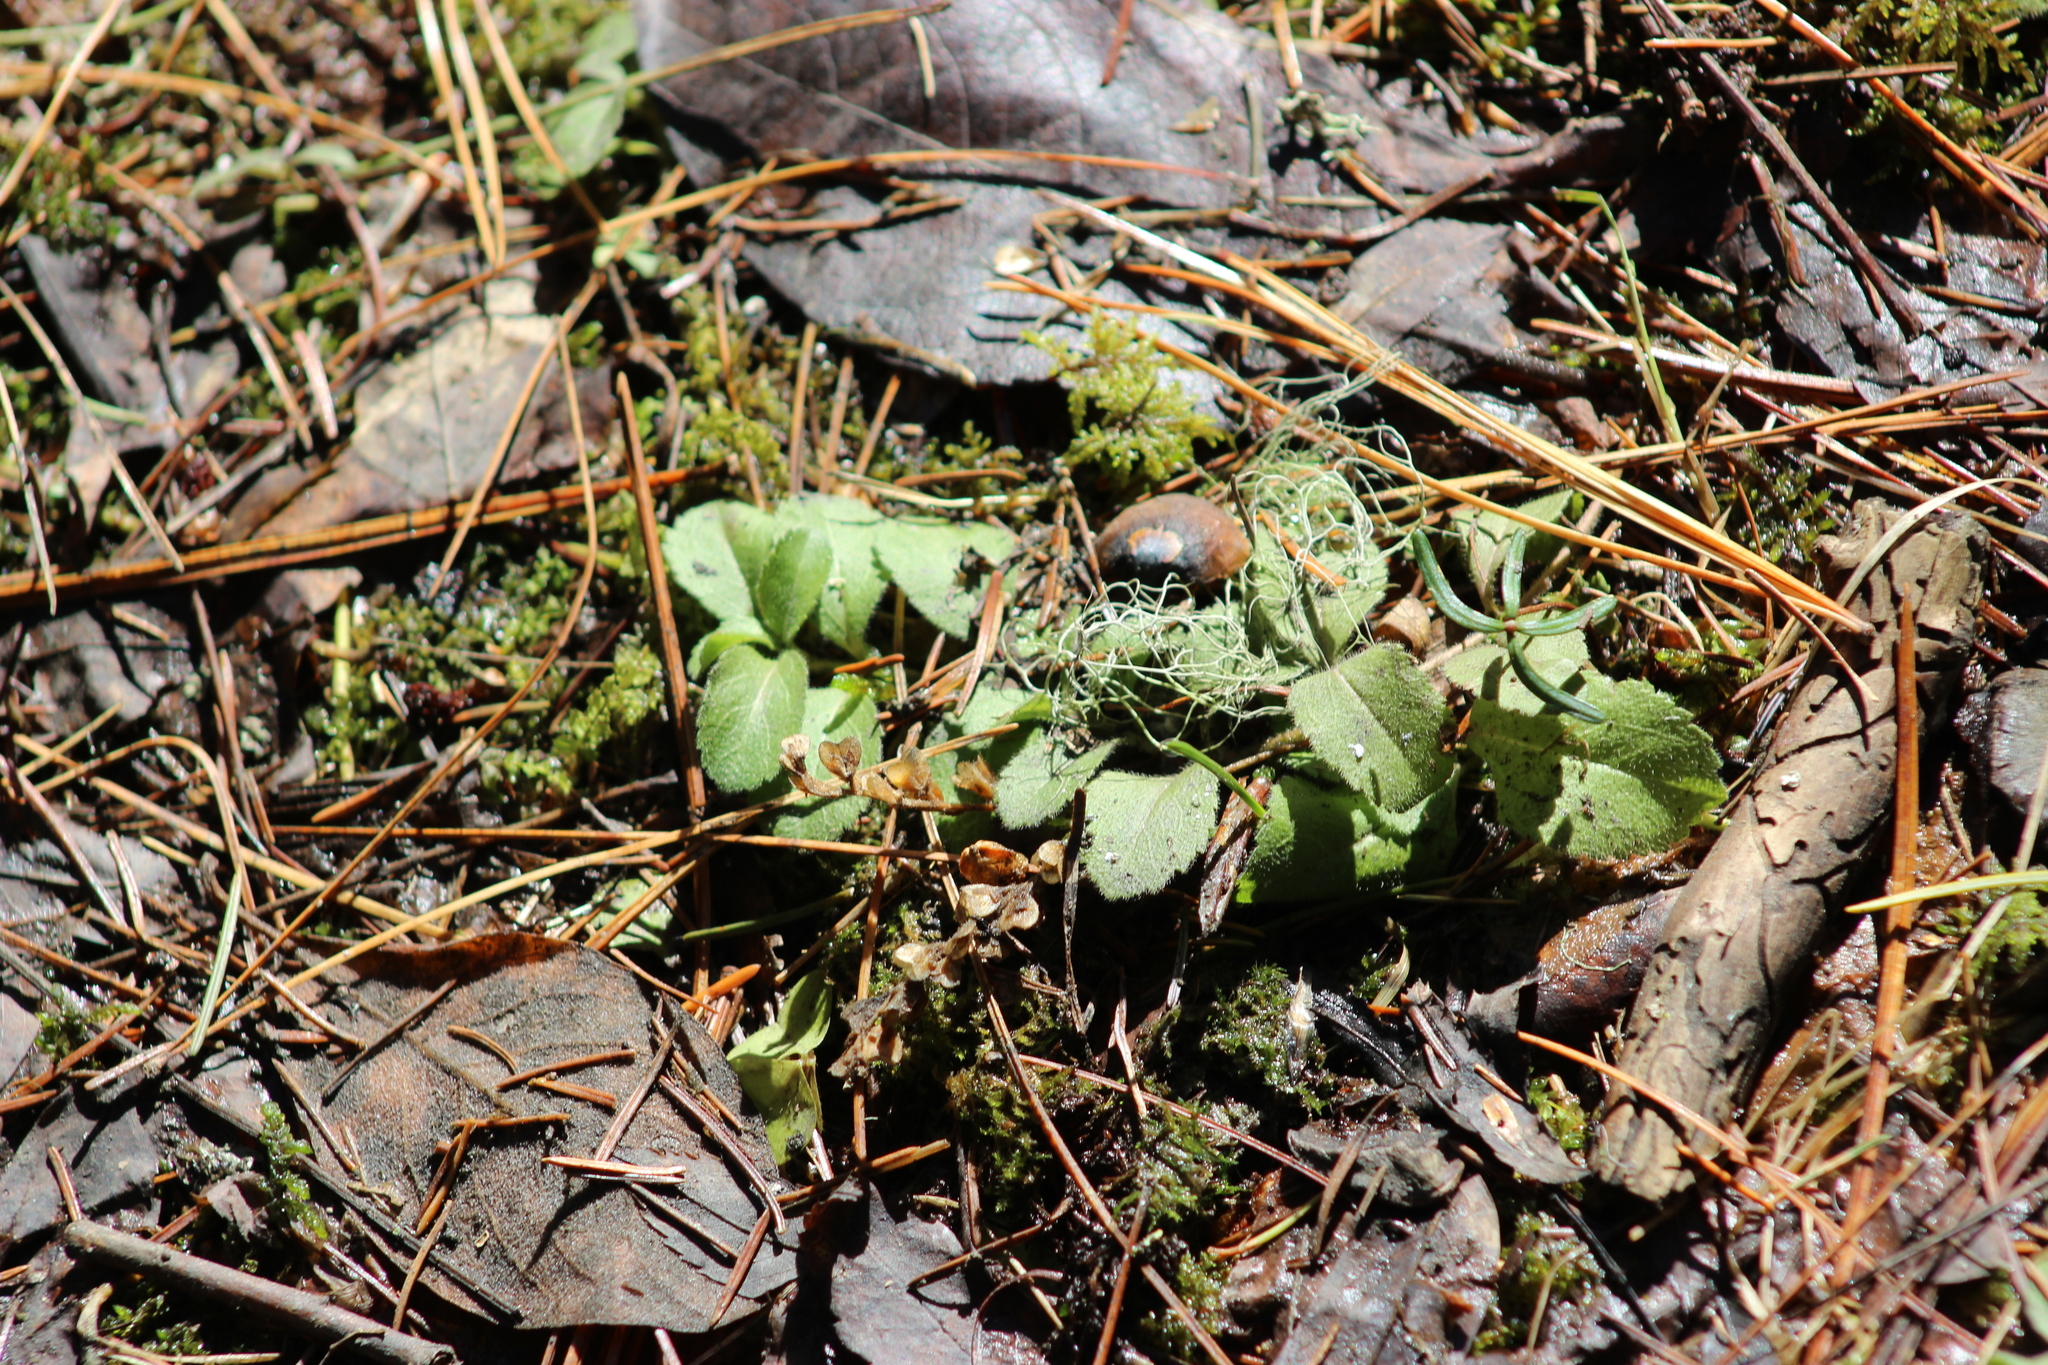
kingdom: Plantae
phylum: Tracheophyta
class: Magnoliopsida
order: Lamiales
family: Plantaginaceae
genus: Veronica
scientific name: Veronica officinalis
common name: Common speedwell
